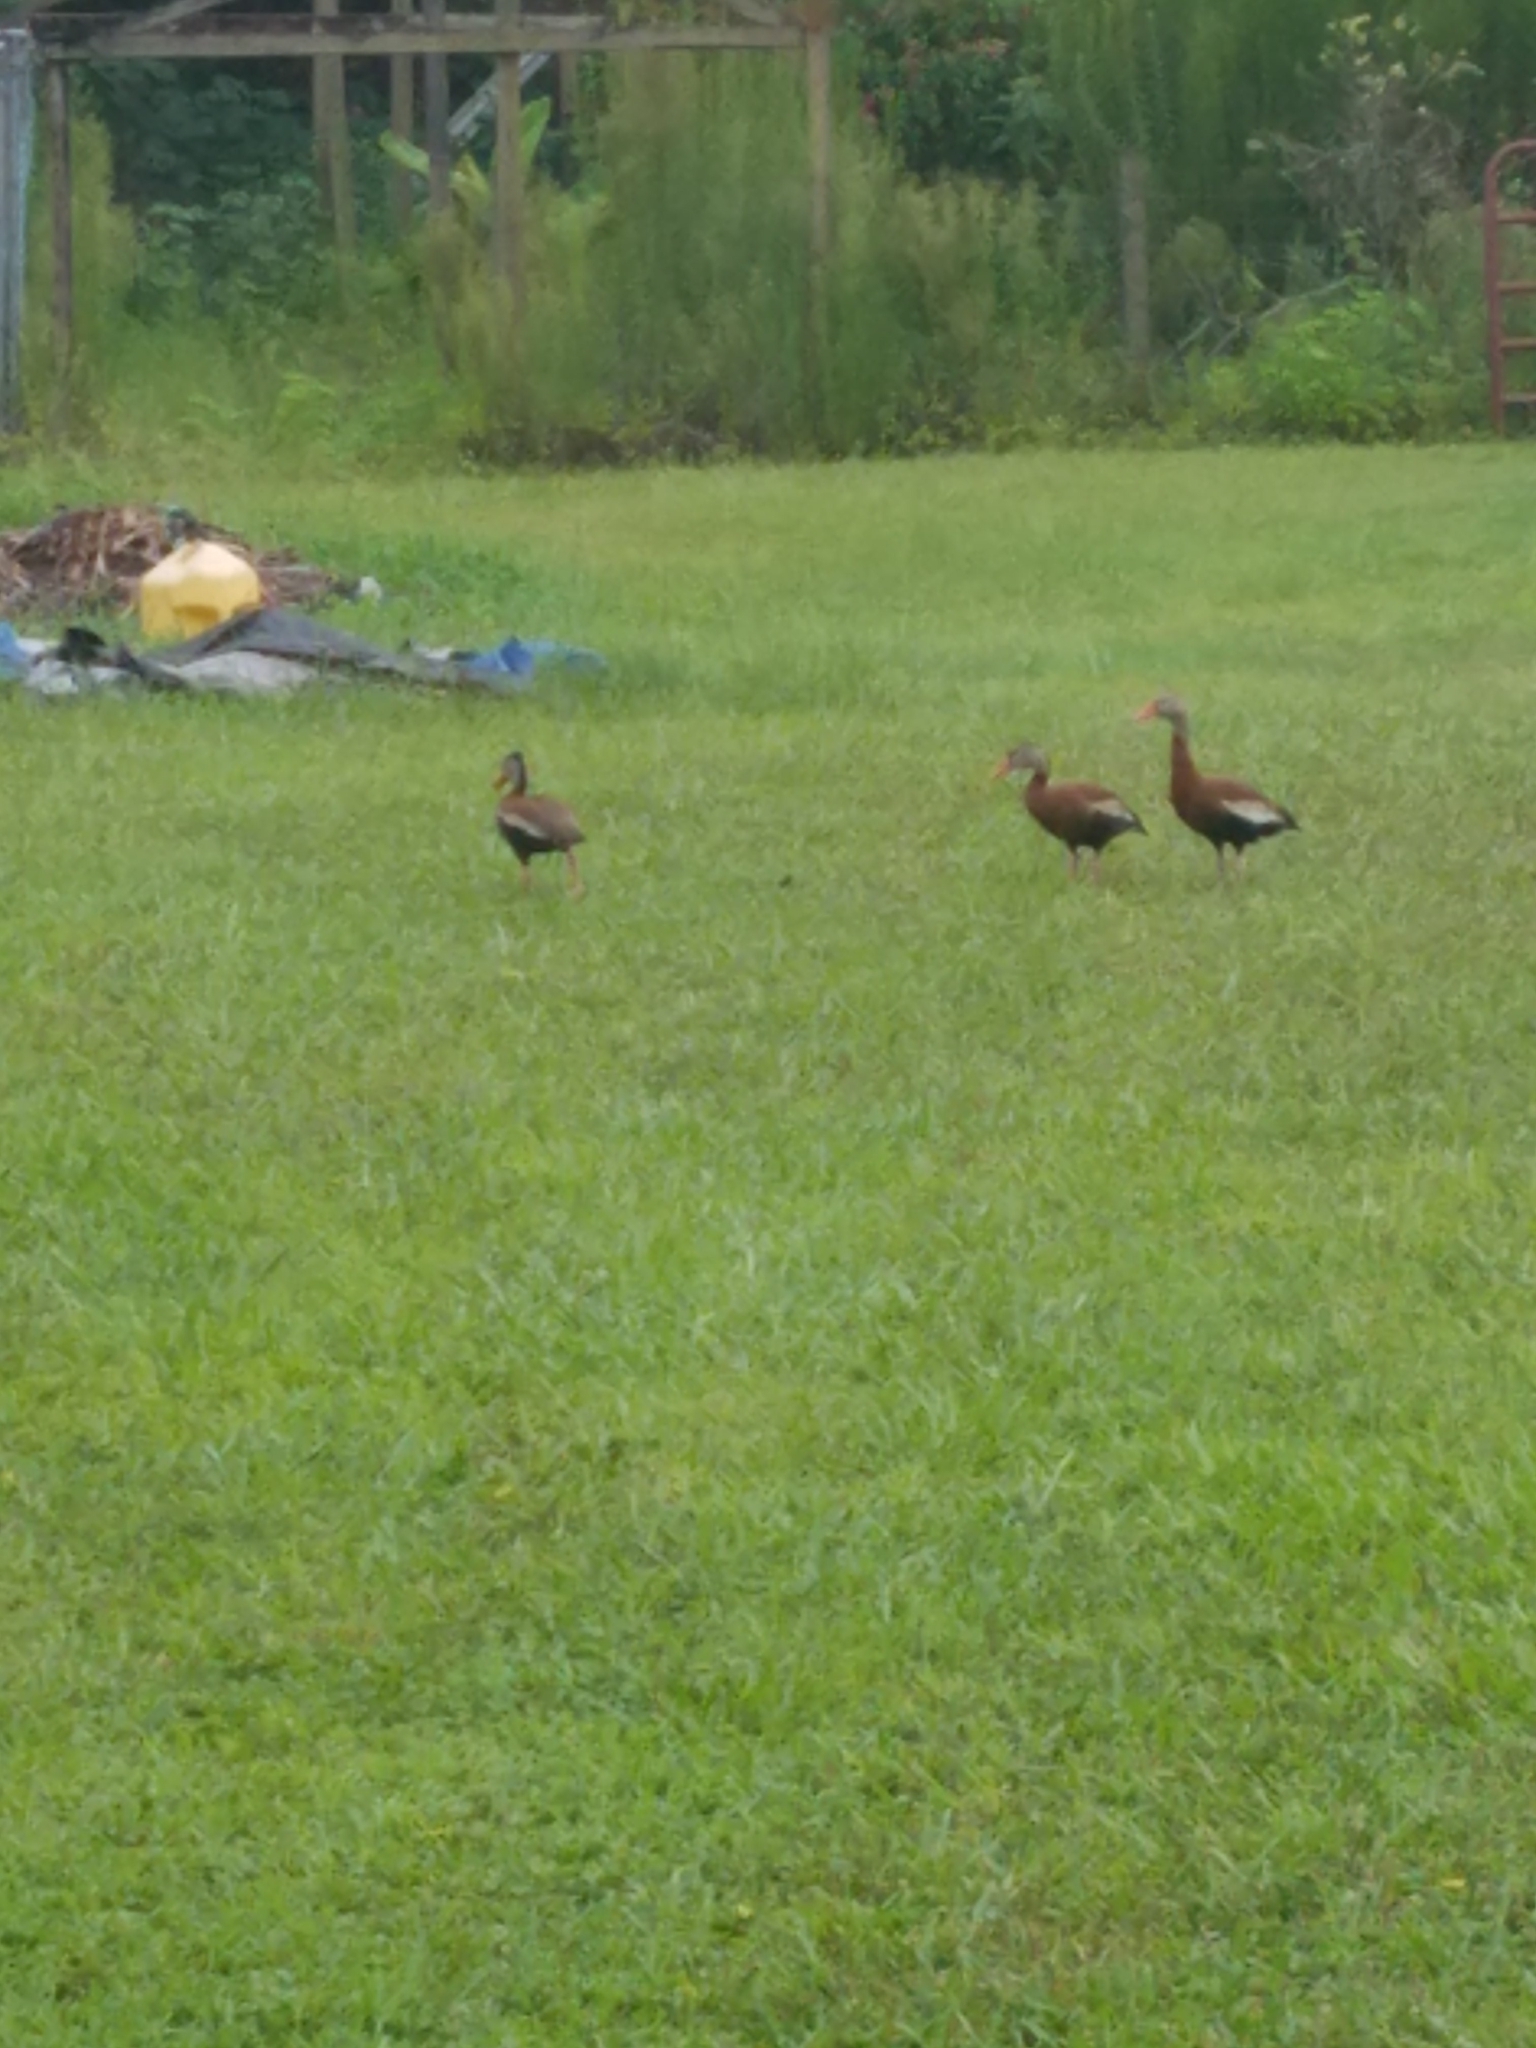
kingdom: Animalia
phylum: Chordata
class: Aves
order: Anseriformes
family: Anatidae
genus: Dendrocygna
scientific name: Dendrocygna autumnalis
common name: Black-bellied whistling duck
